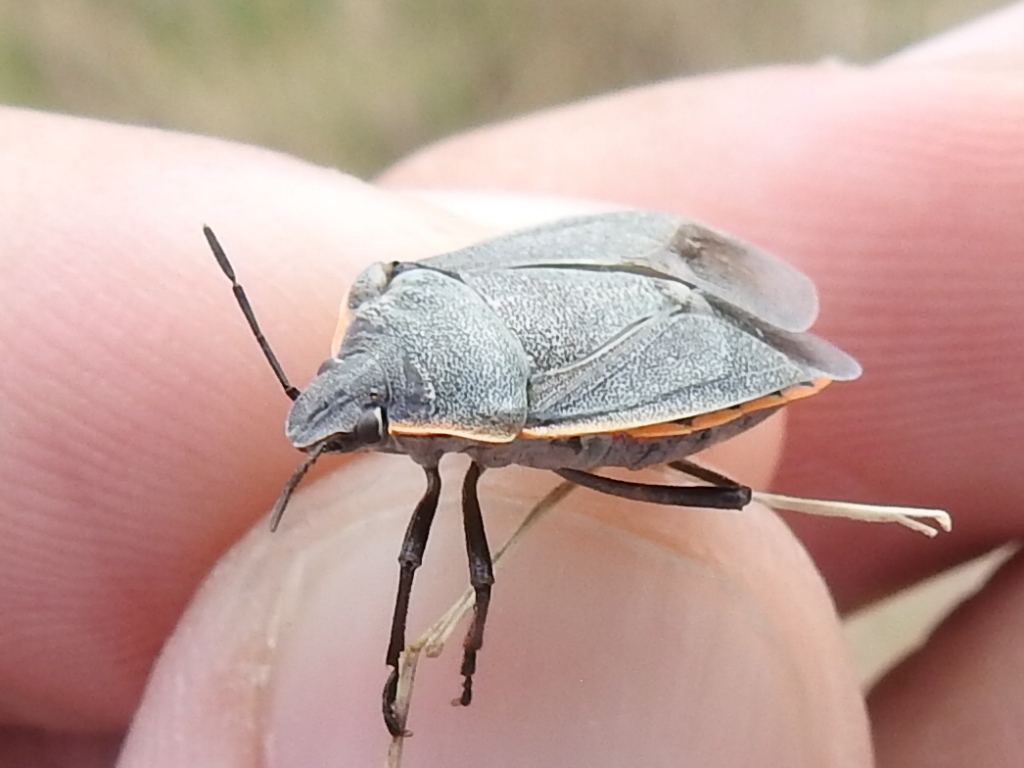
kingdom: Animalia
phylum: Arthropoda
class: Insecta
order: Hemiptera
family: Pentatomidae
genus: Chlorochroa
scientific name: Chlorochroa ligata
